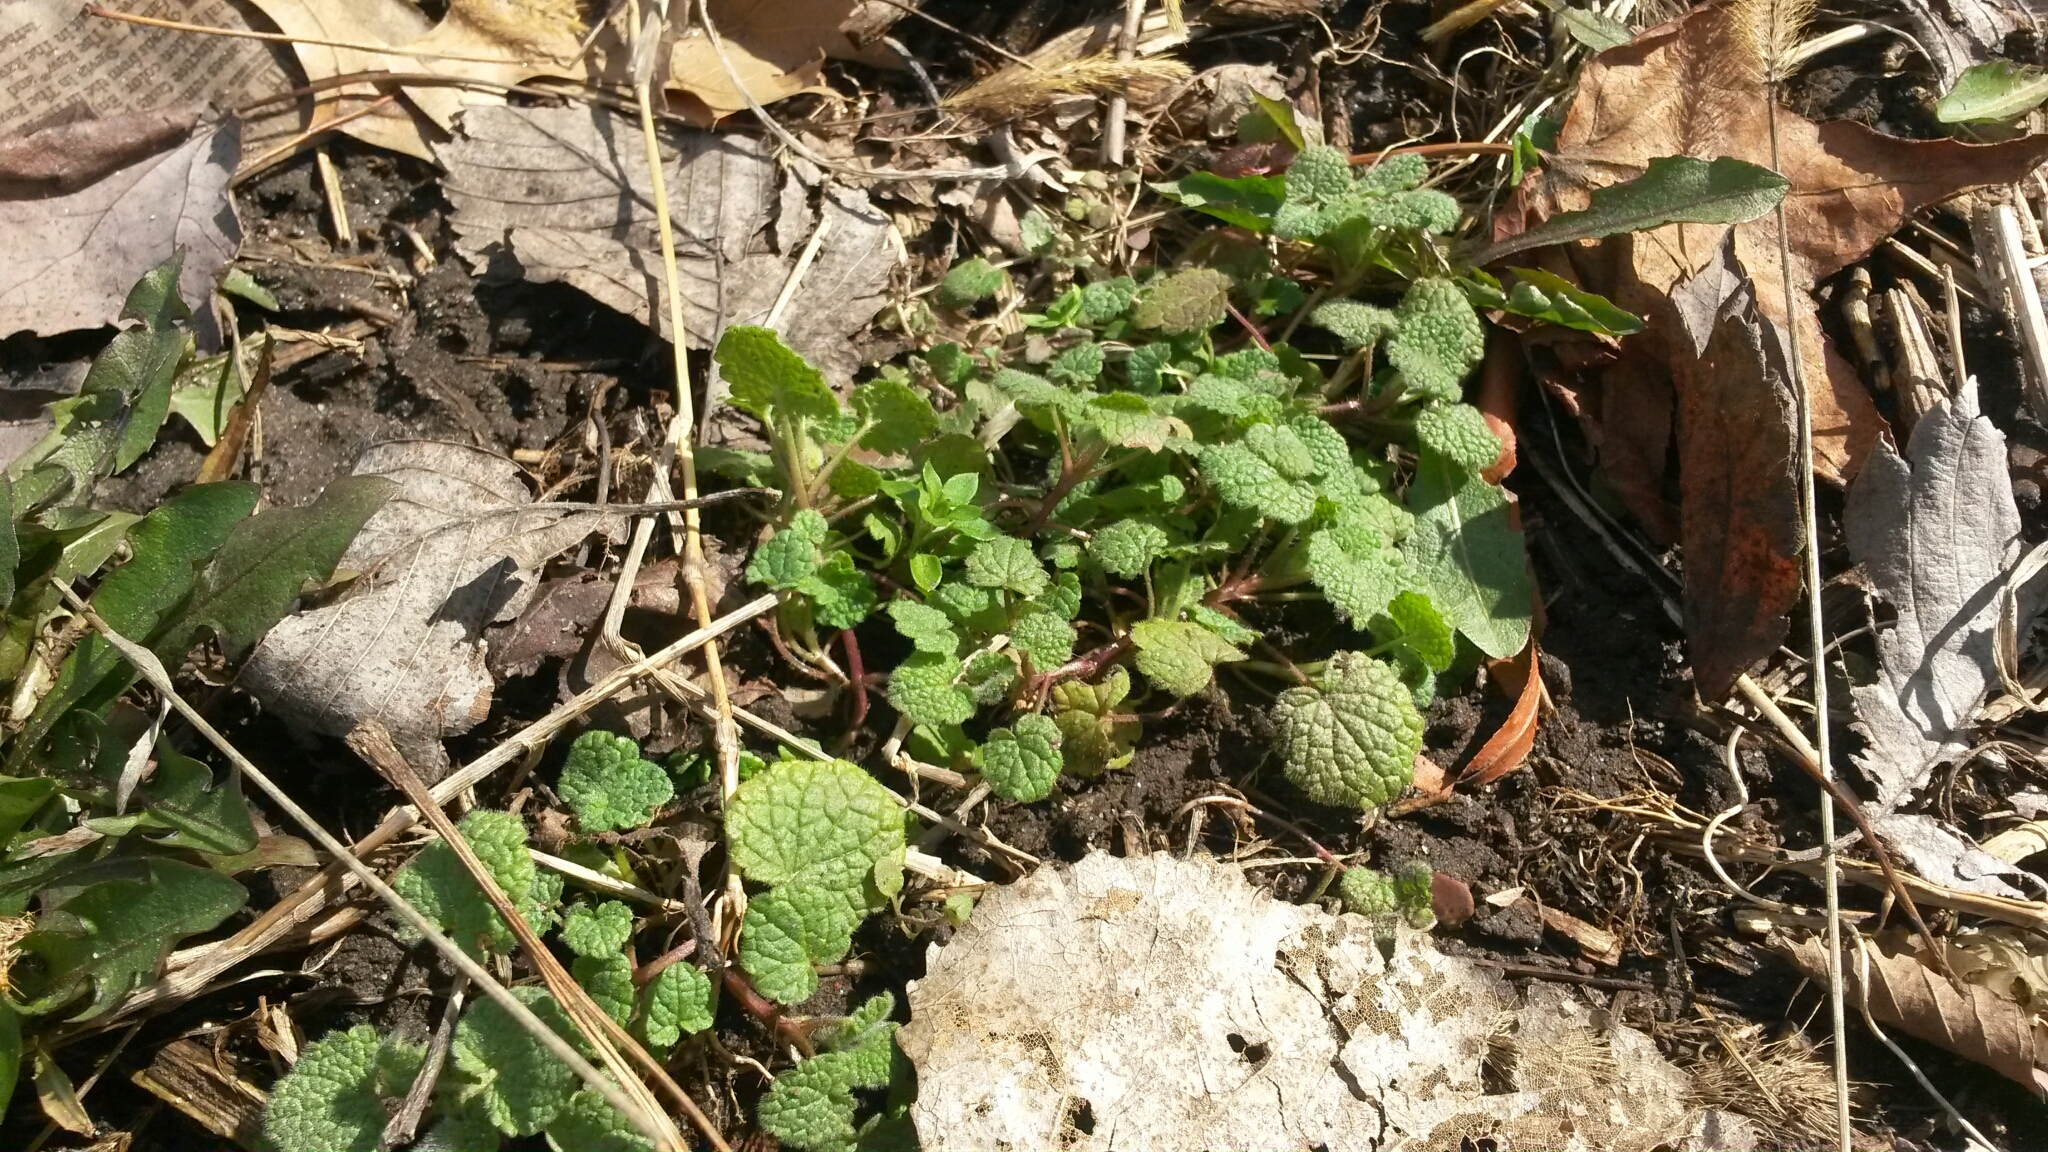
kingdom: Plantae
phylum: Tracheophyta
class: Magnoliopsida
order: Lamiales
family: Lamiaceae
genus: Lamium
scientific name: Lamium purpureum
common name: Red dead-nettle
